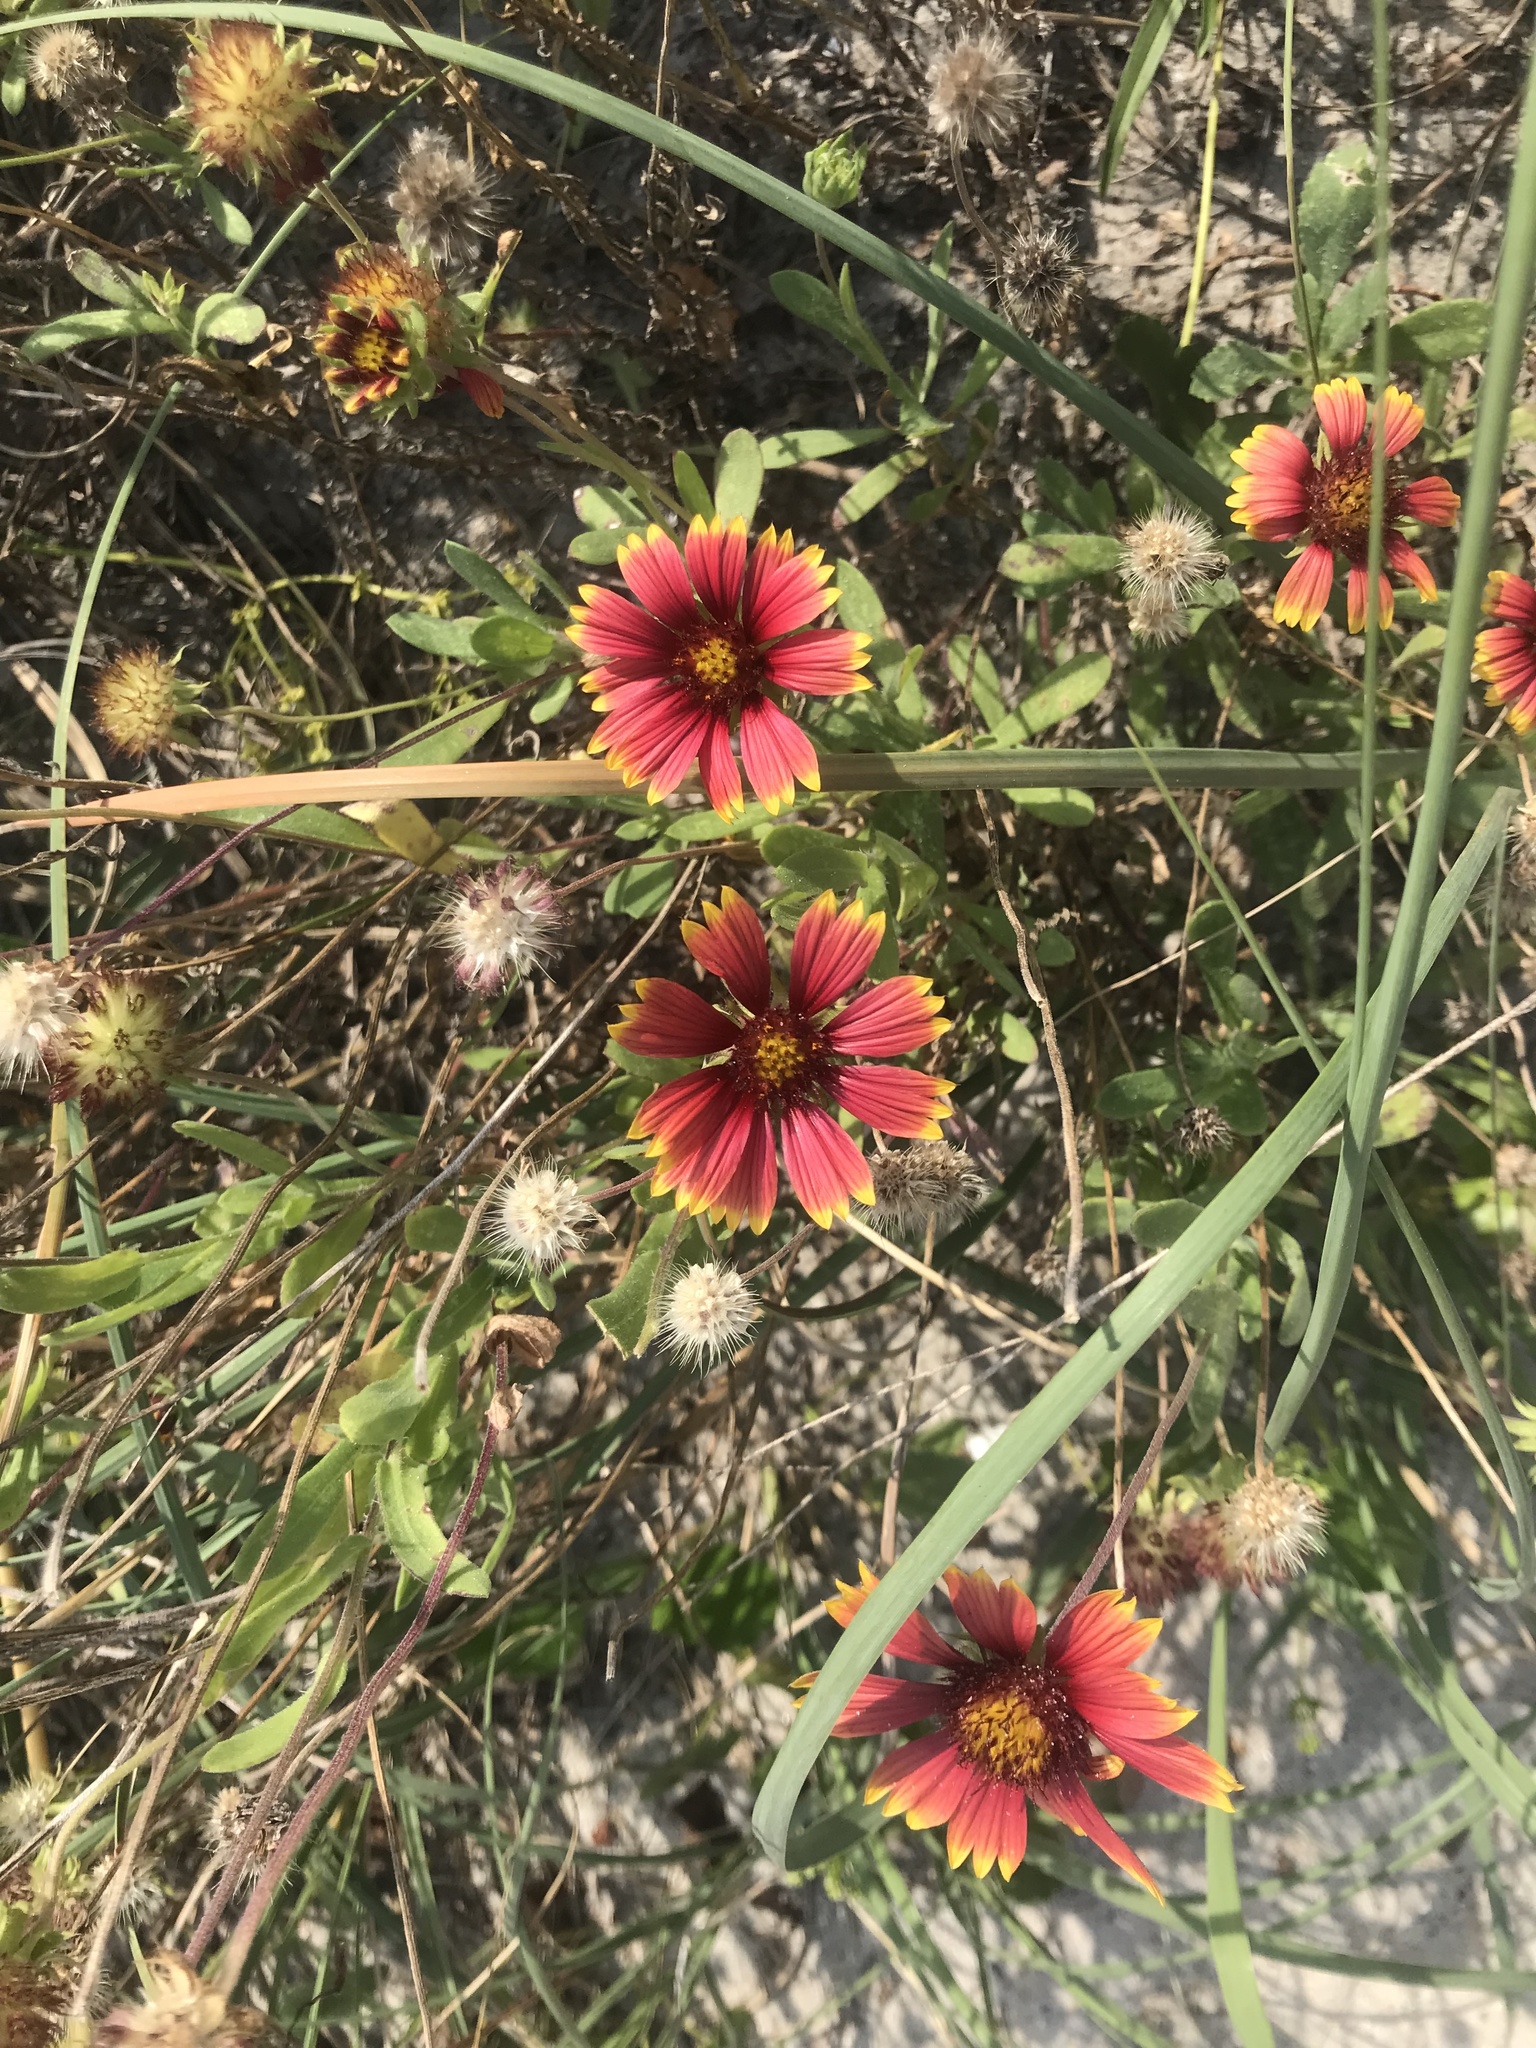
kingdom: Plantae
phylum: Tracheophyta
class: Magnoliopsida
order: Asterales
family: Asteraceae
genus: Gaillardia
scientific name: Gaillardia pulchella
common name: Firewheel
